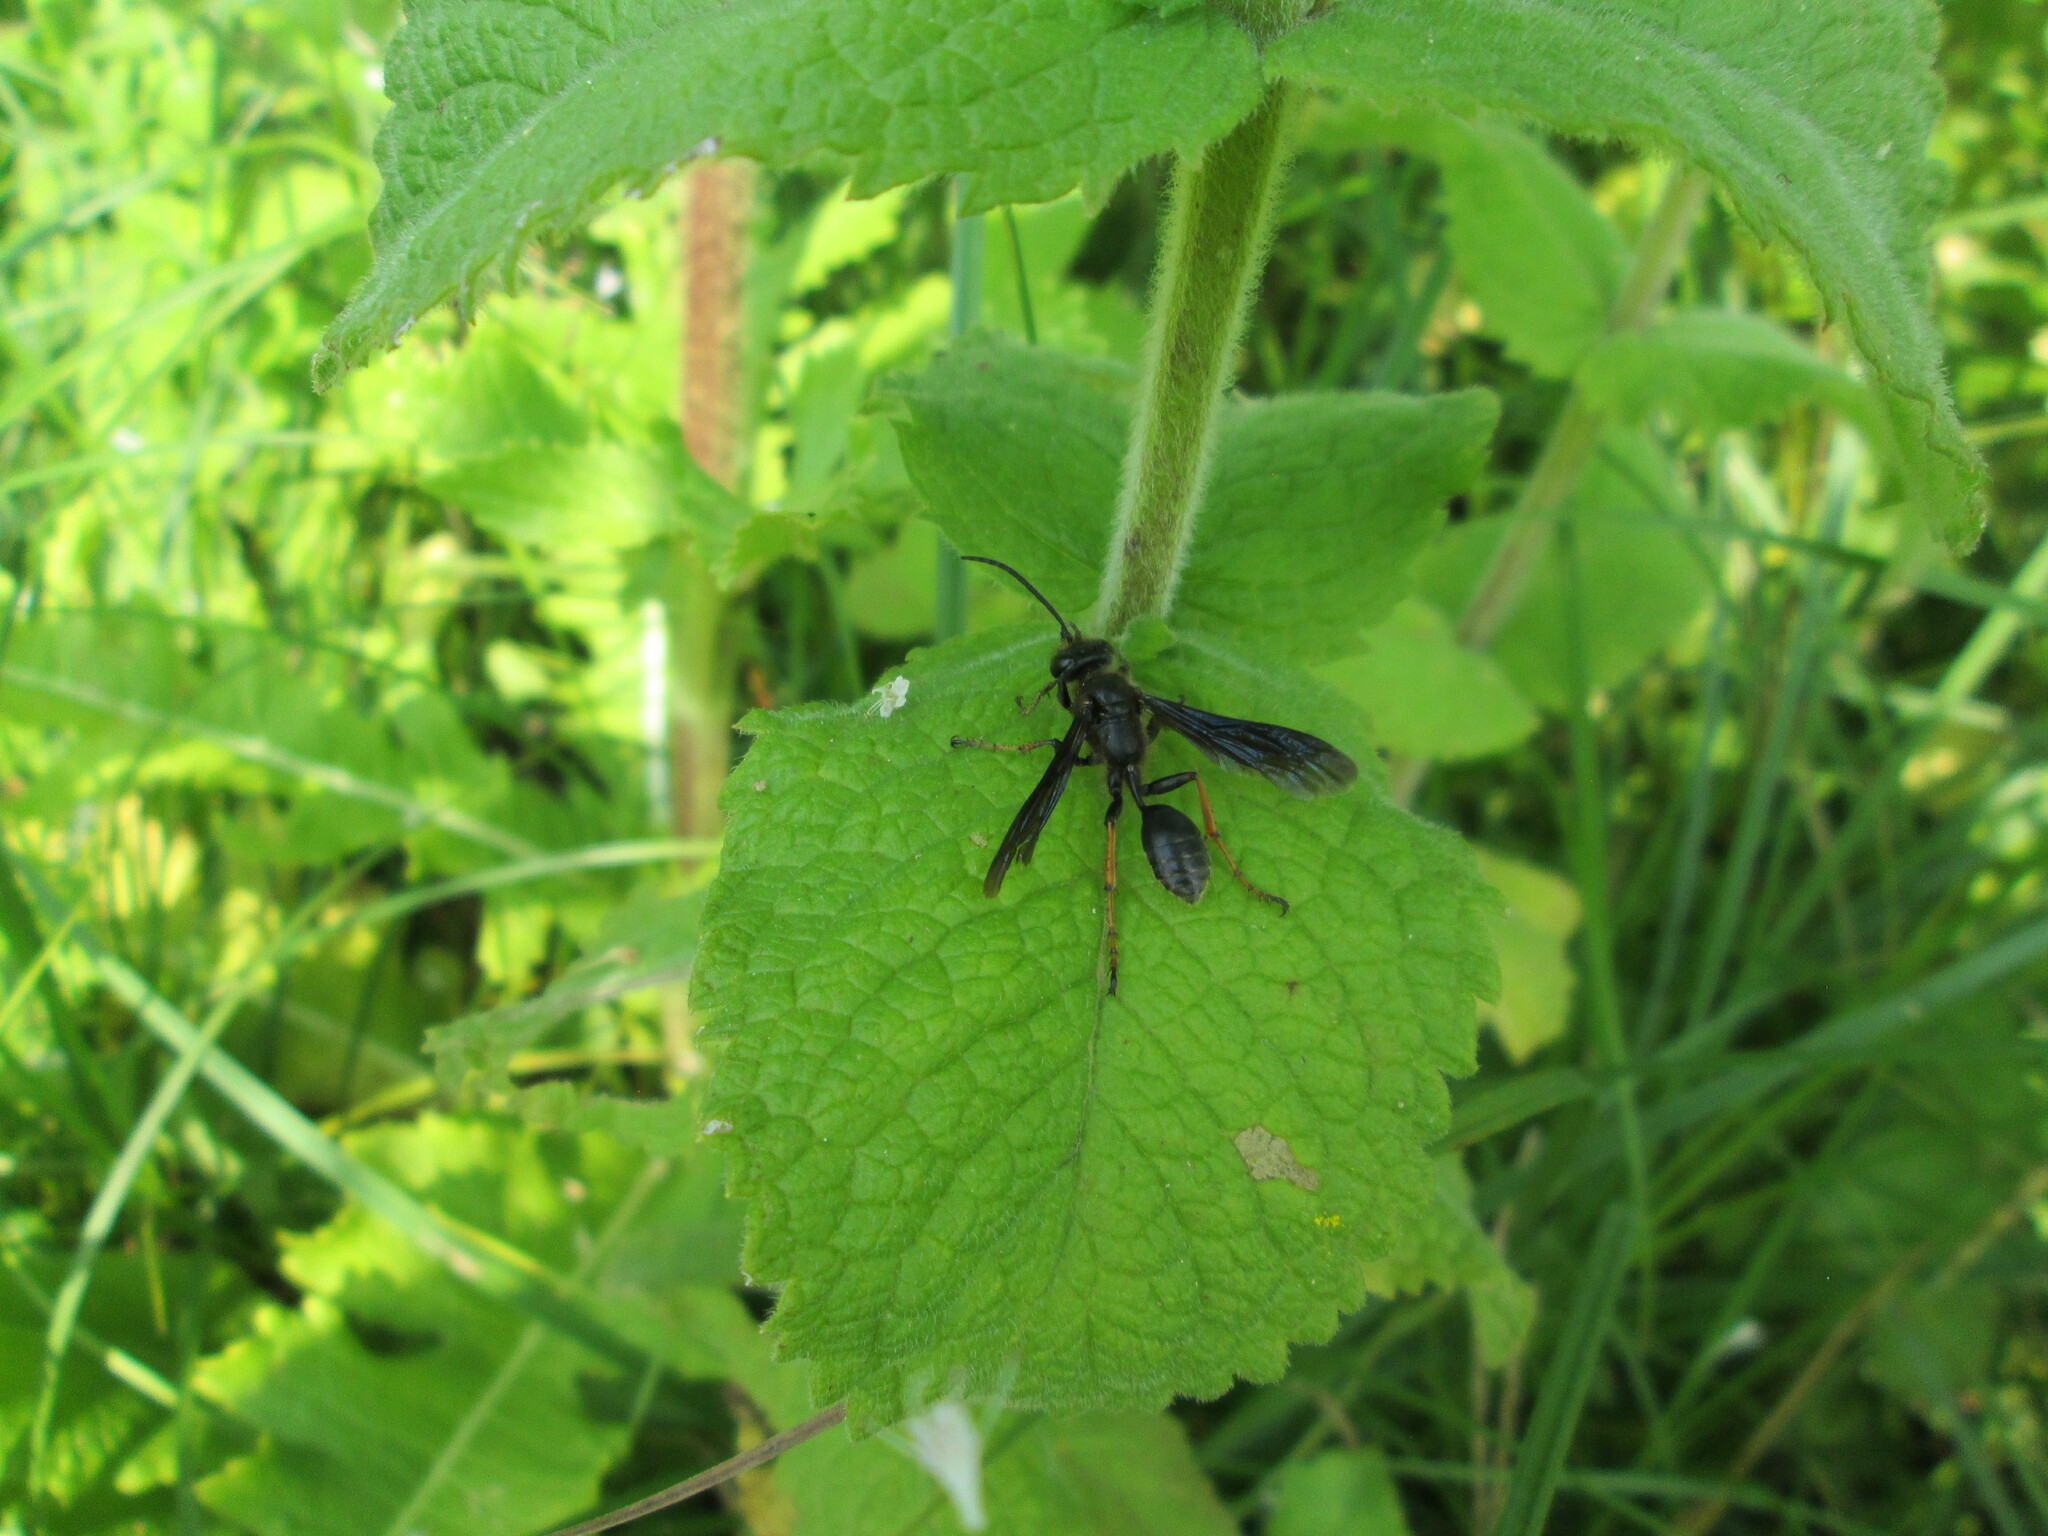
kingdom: Animalia
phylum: Arthropoda
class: Insecta
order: Hymenoptera
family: Sphecidae
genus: Isodontia
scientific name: Isodontia auripes
